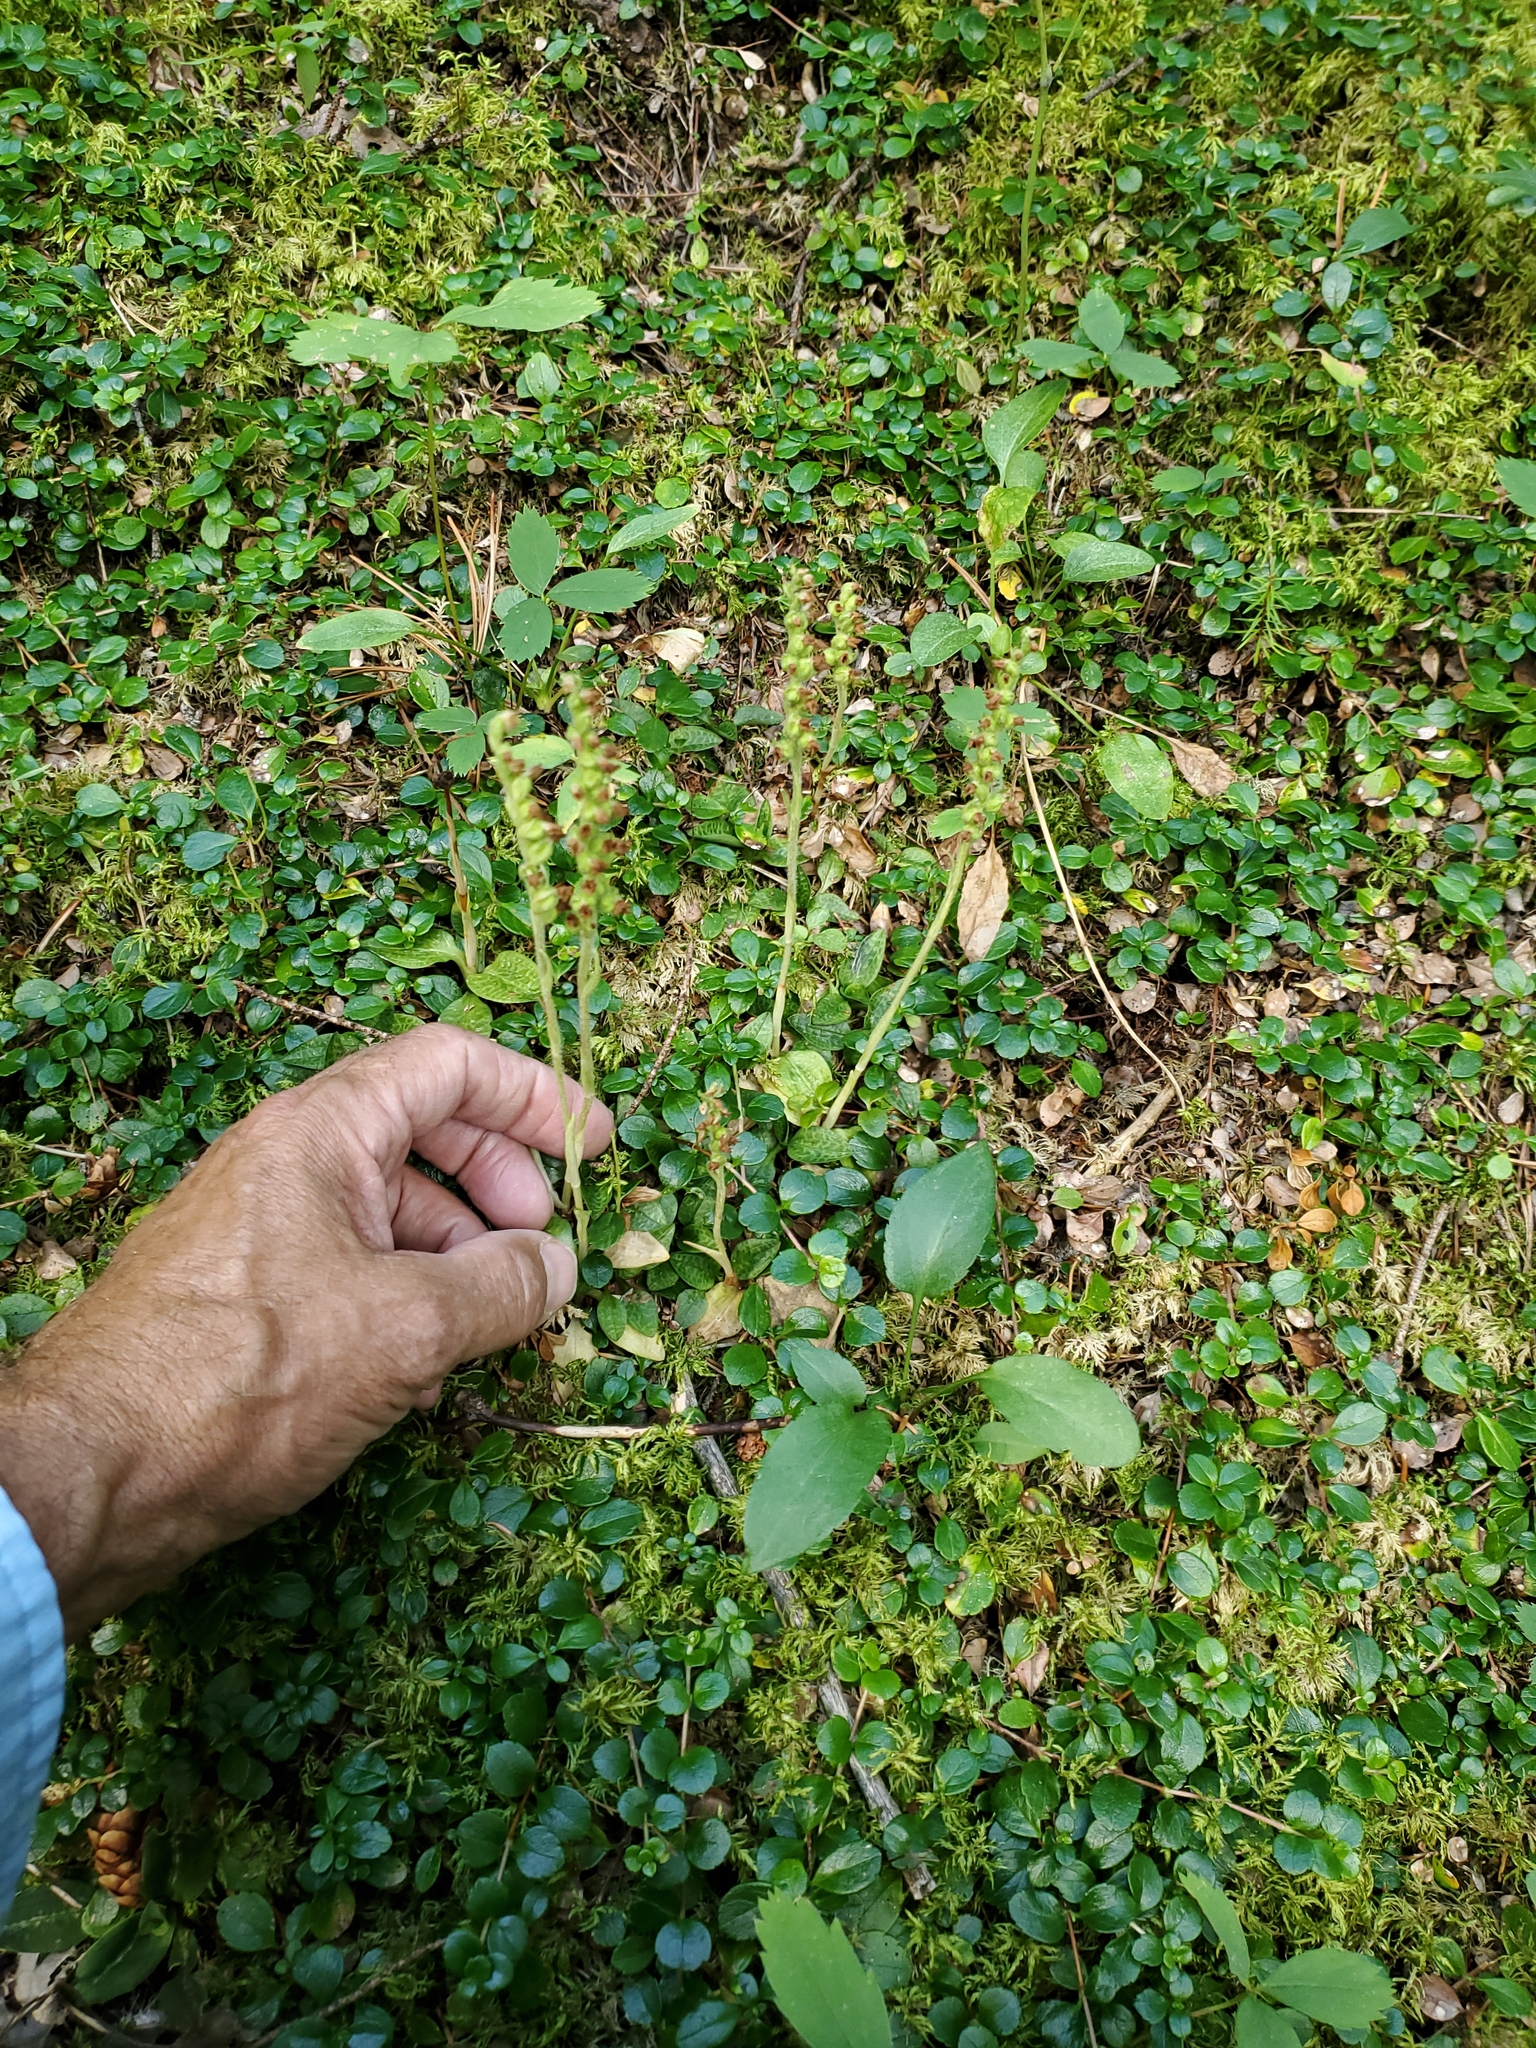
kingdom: Plantae
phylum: Tracheophyta
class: Liliopsida
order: Asparagales
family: Orchidaceae
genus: Goodyera
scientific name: Goodyera repens
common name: Creeping lady's-tresses
